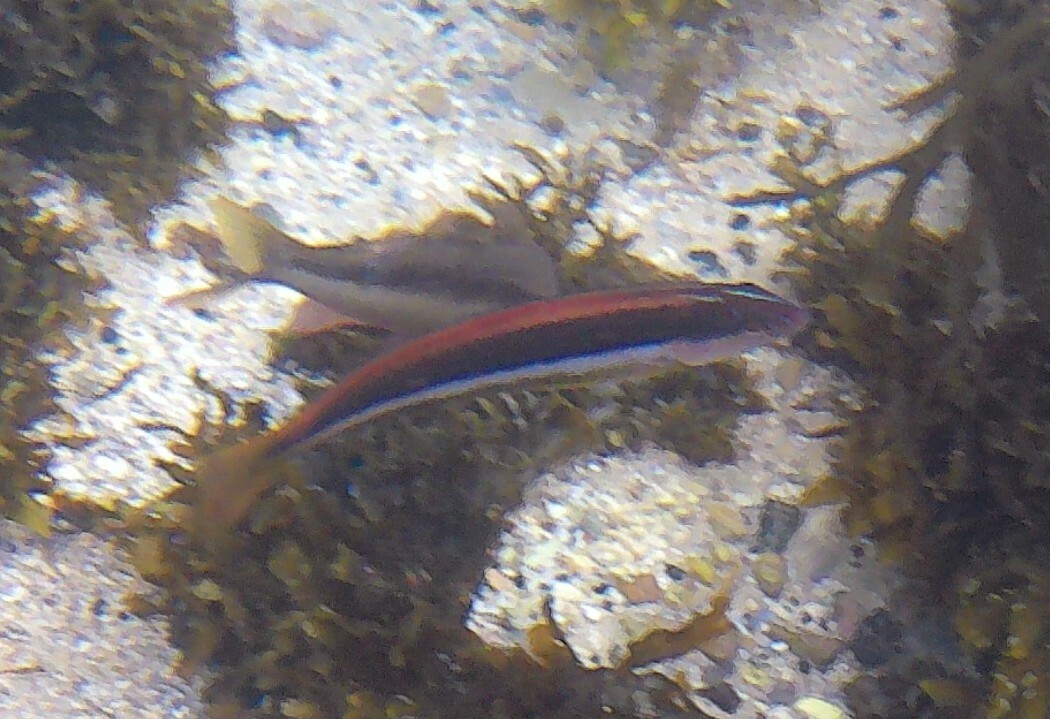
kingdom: Animalia
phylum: Chordata
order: Perciformes
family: Labridae
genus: Ophthalmolepis
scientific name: Ophthalmolepis lineolata
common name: Maori wrasse
